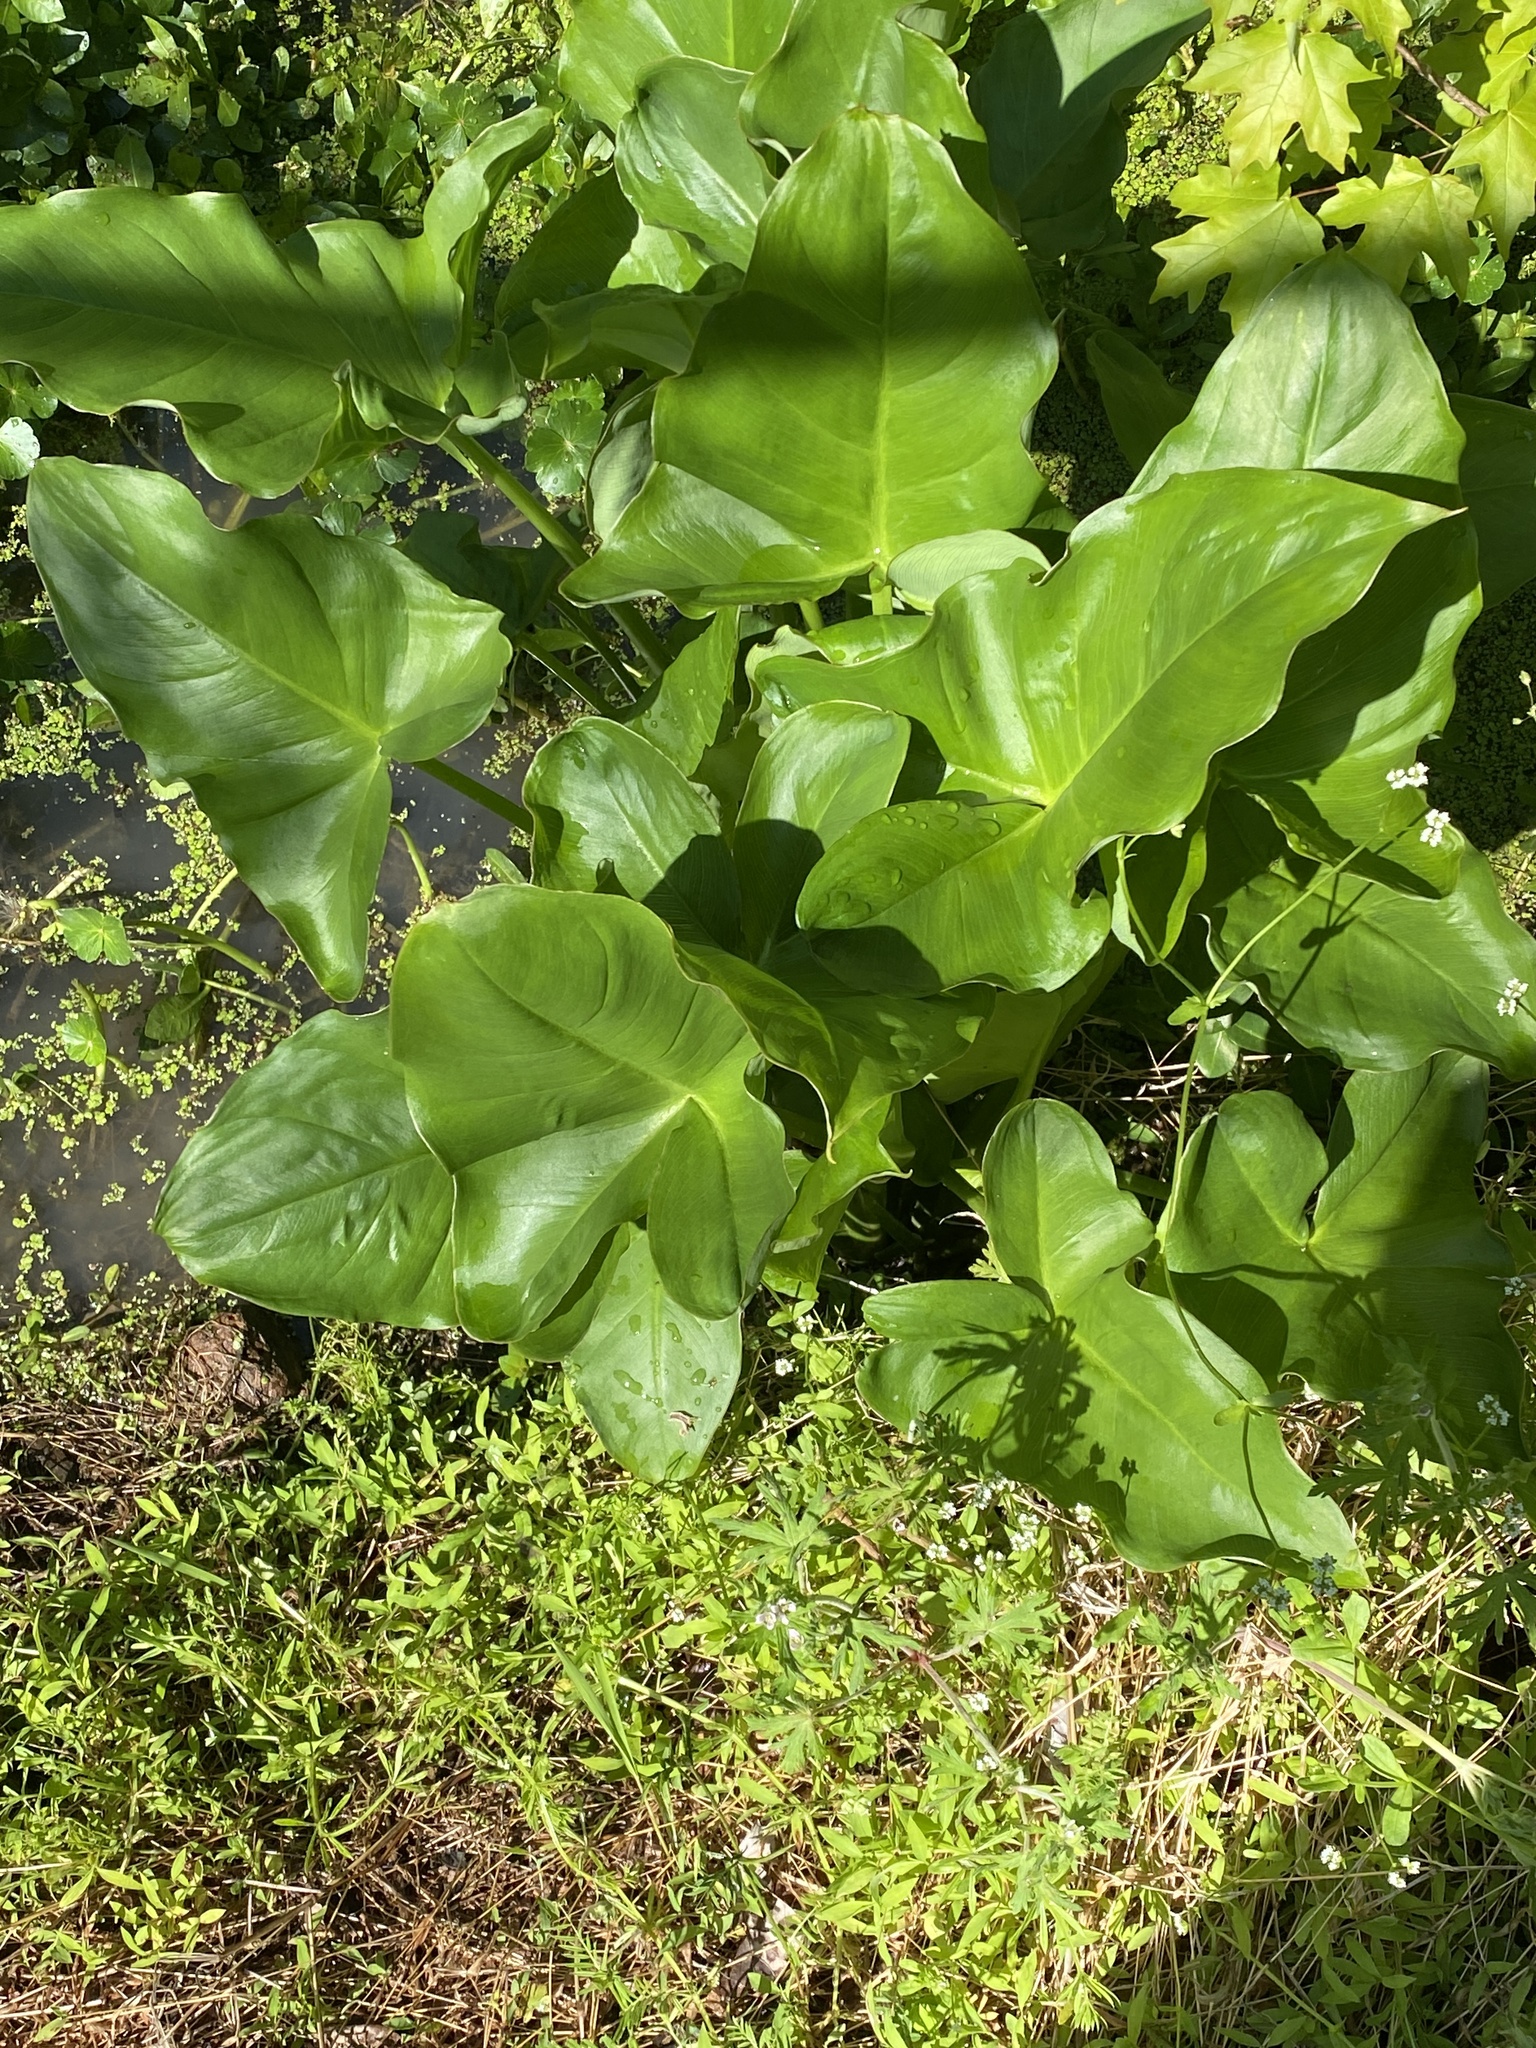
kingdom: Plantae
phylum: Tracheophyta
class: Liliopsida
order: Alismatales
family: Araceae
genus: Peltandra
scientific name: Peltandra virginica
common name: Arrow arum
